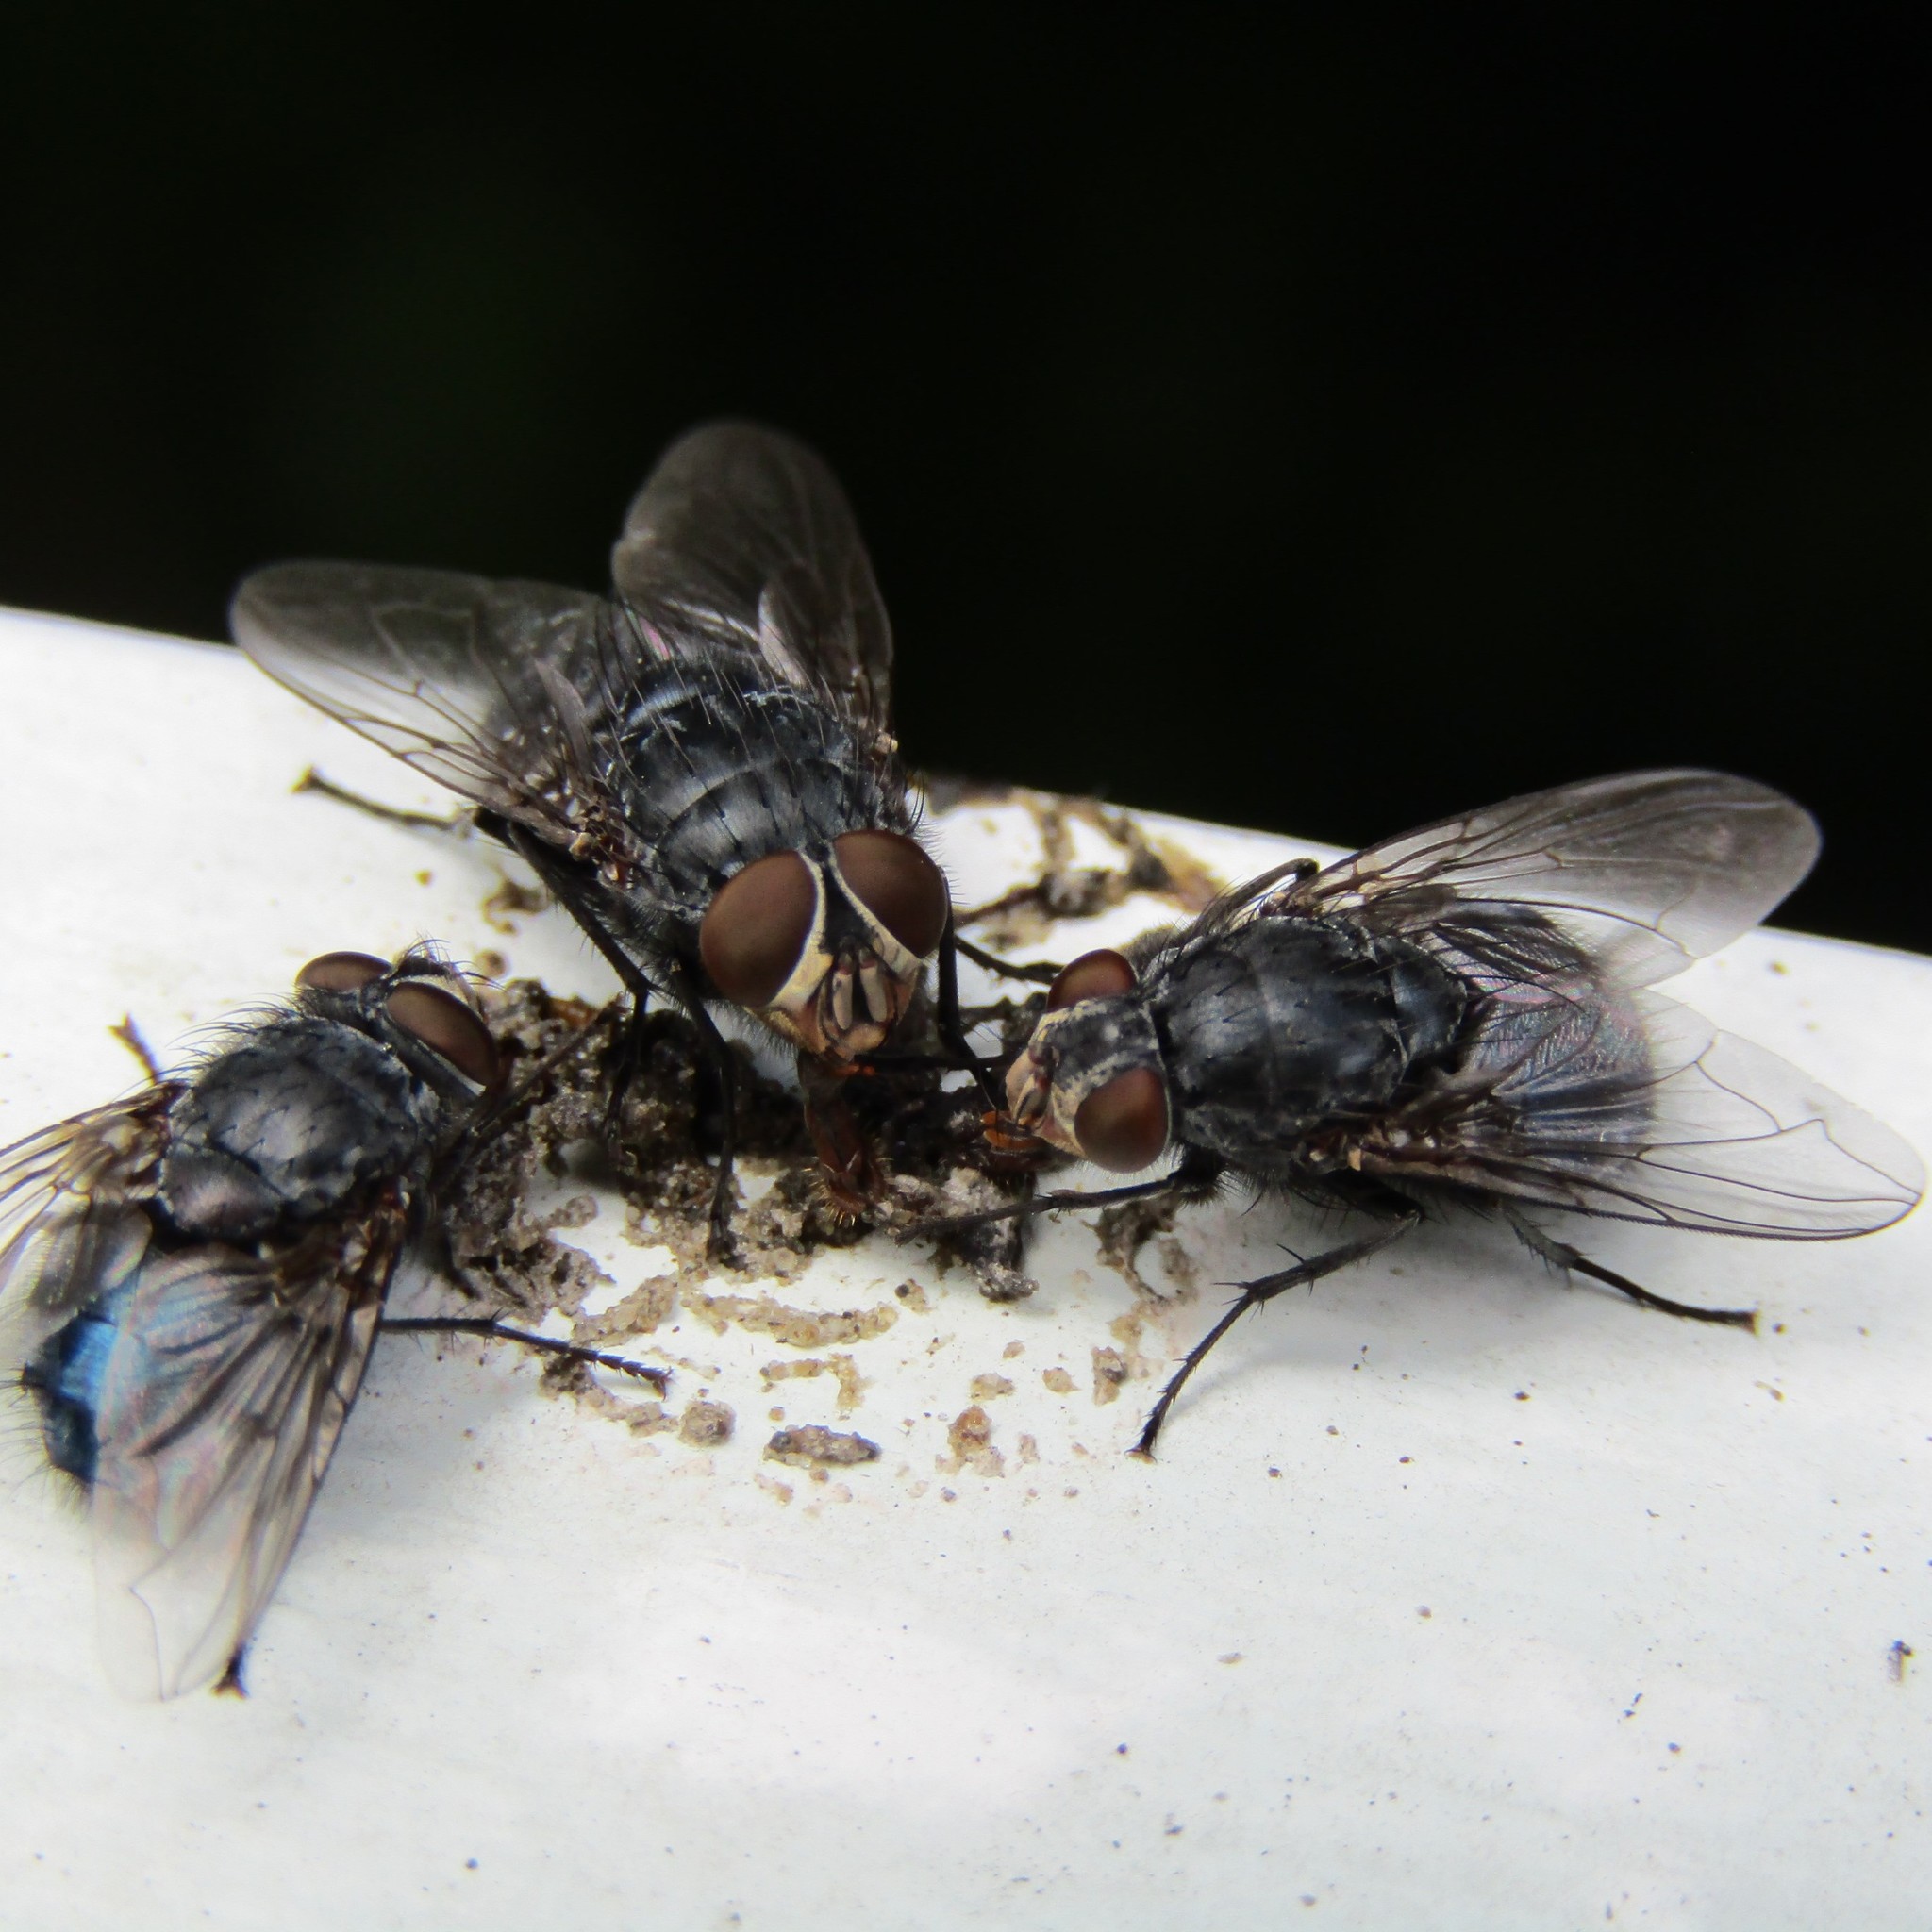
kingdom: Animalia
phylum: Arthropoda
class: Insecta
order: Diptera
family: Calliphoridae
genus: Calliphora
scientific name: Calliphora vicina
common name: Common blow flie
